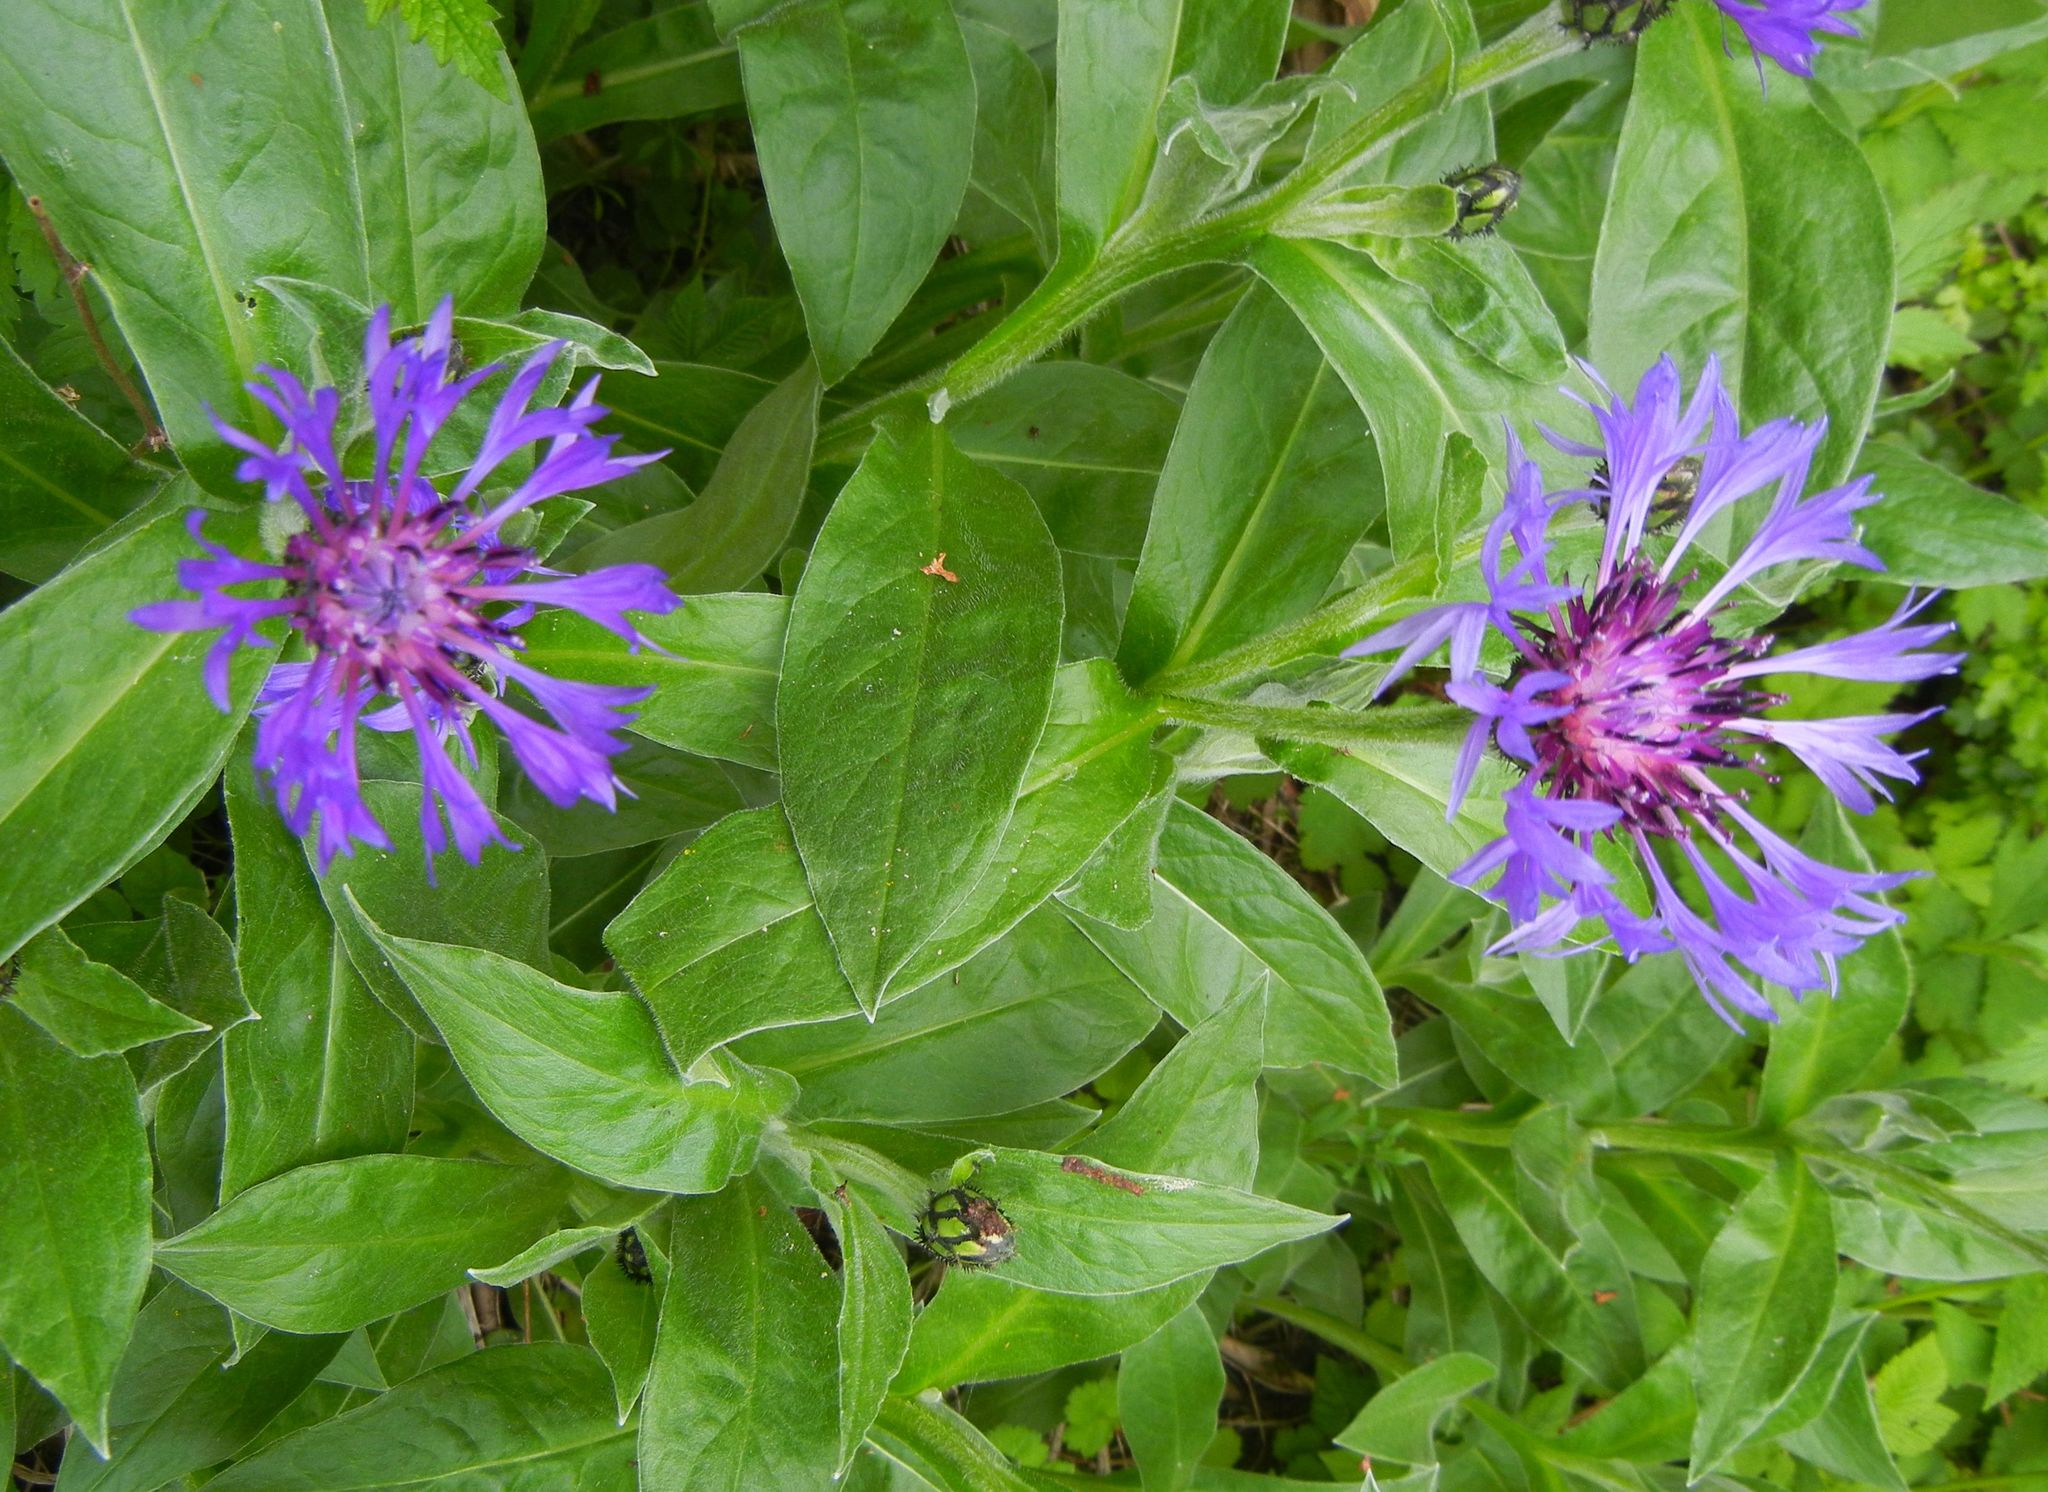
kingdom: Plantae
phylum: Tracheophyta
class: Magnoliopsida
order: Asterales
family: Asteraceae
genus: Centaurea
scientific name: Centaurea montana
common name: Perennial cornflower
